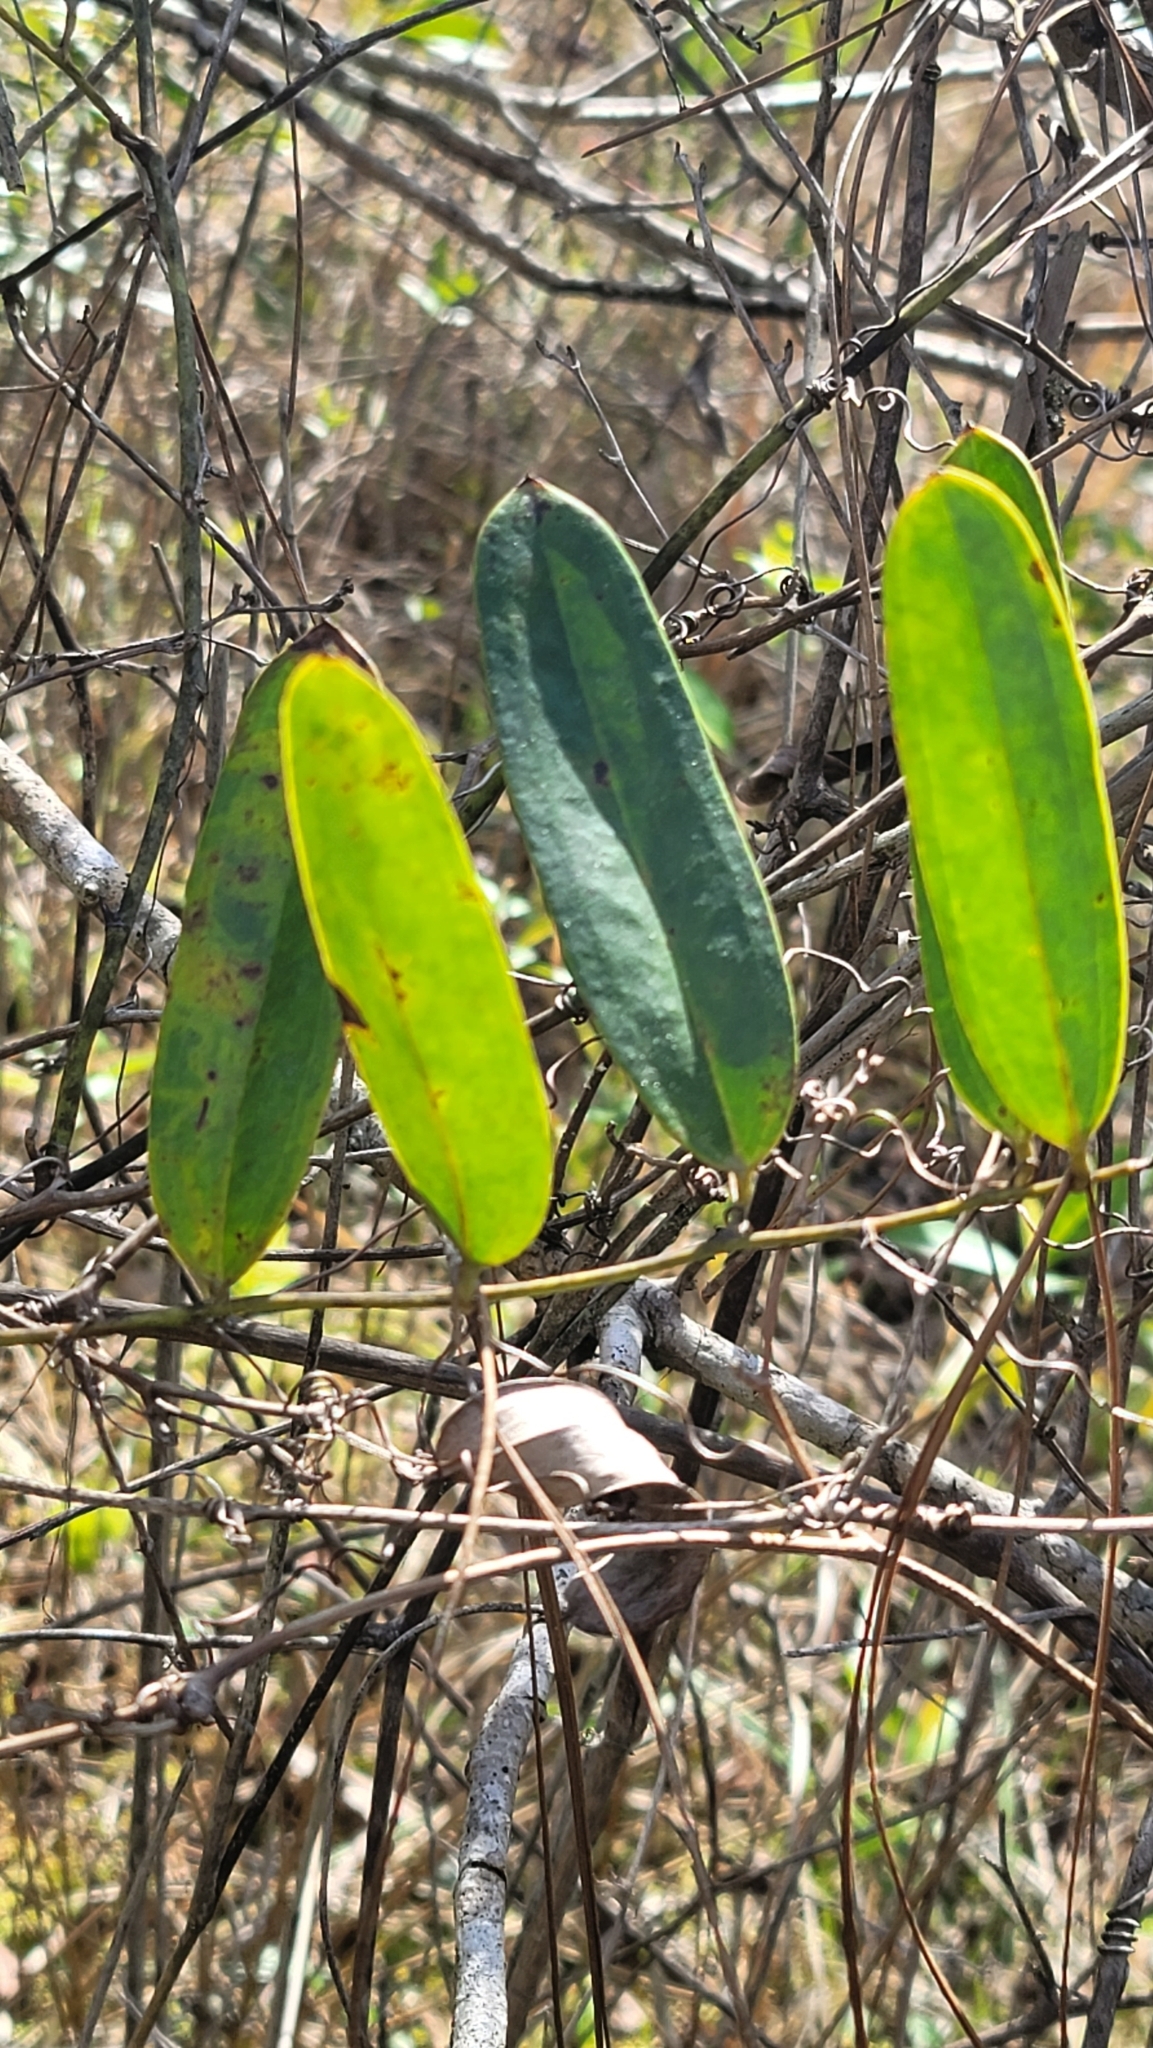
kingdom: Plantae
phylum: Tracheophyta
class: Liliopsida
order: Liliales
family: Smilacaceae
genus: Smilax
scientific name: Smilax laurifolia
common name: Bamboovine
